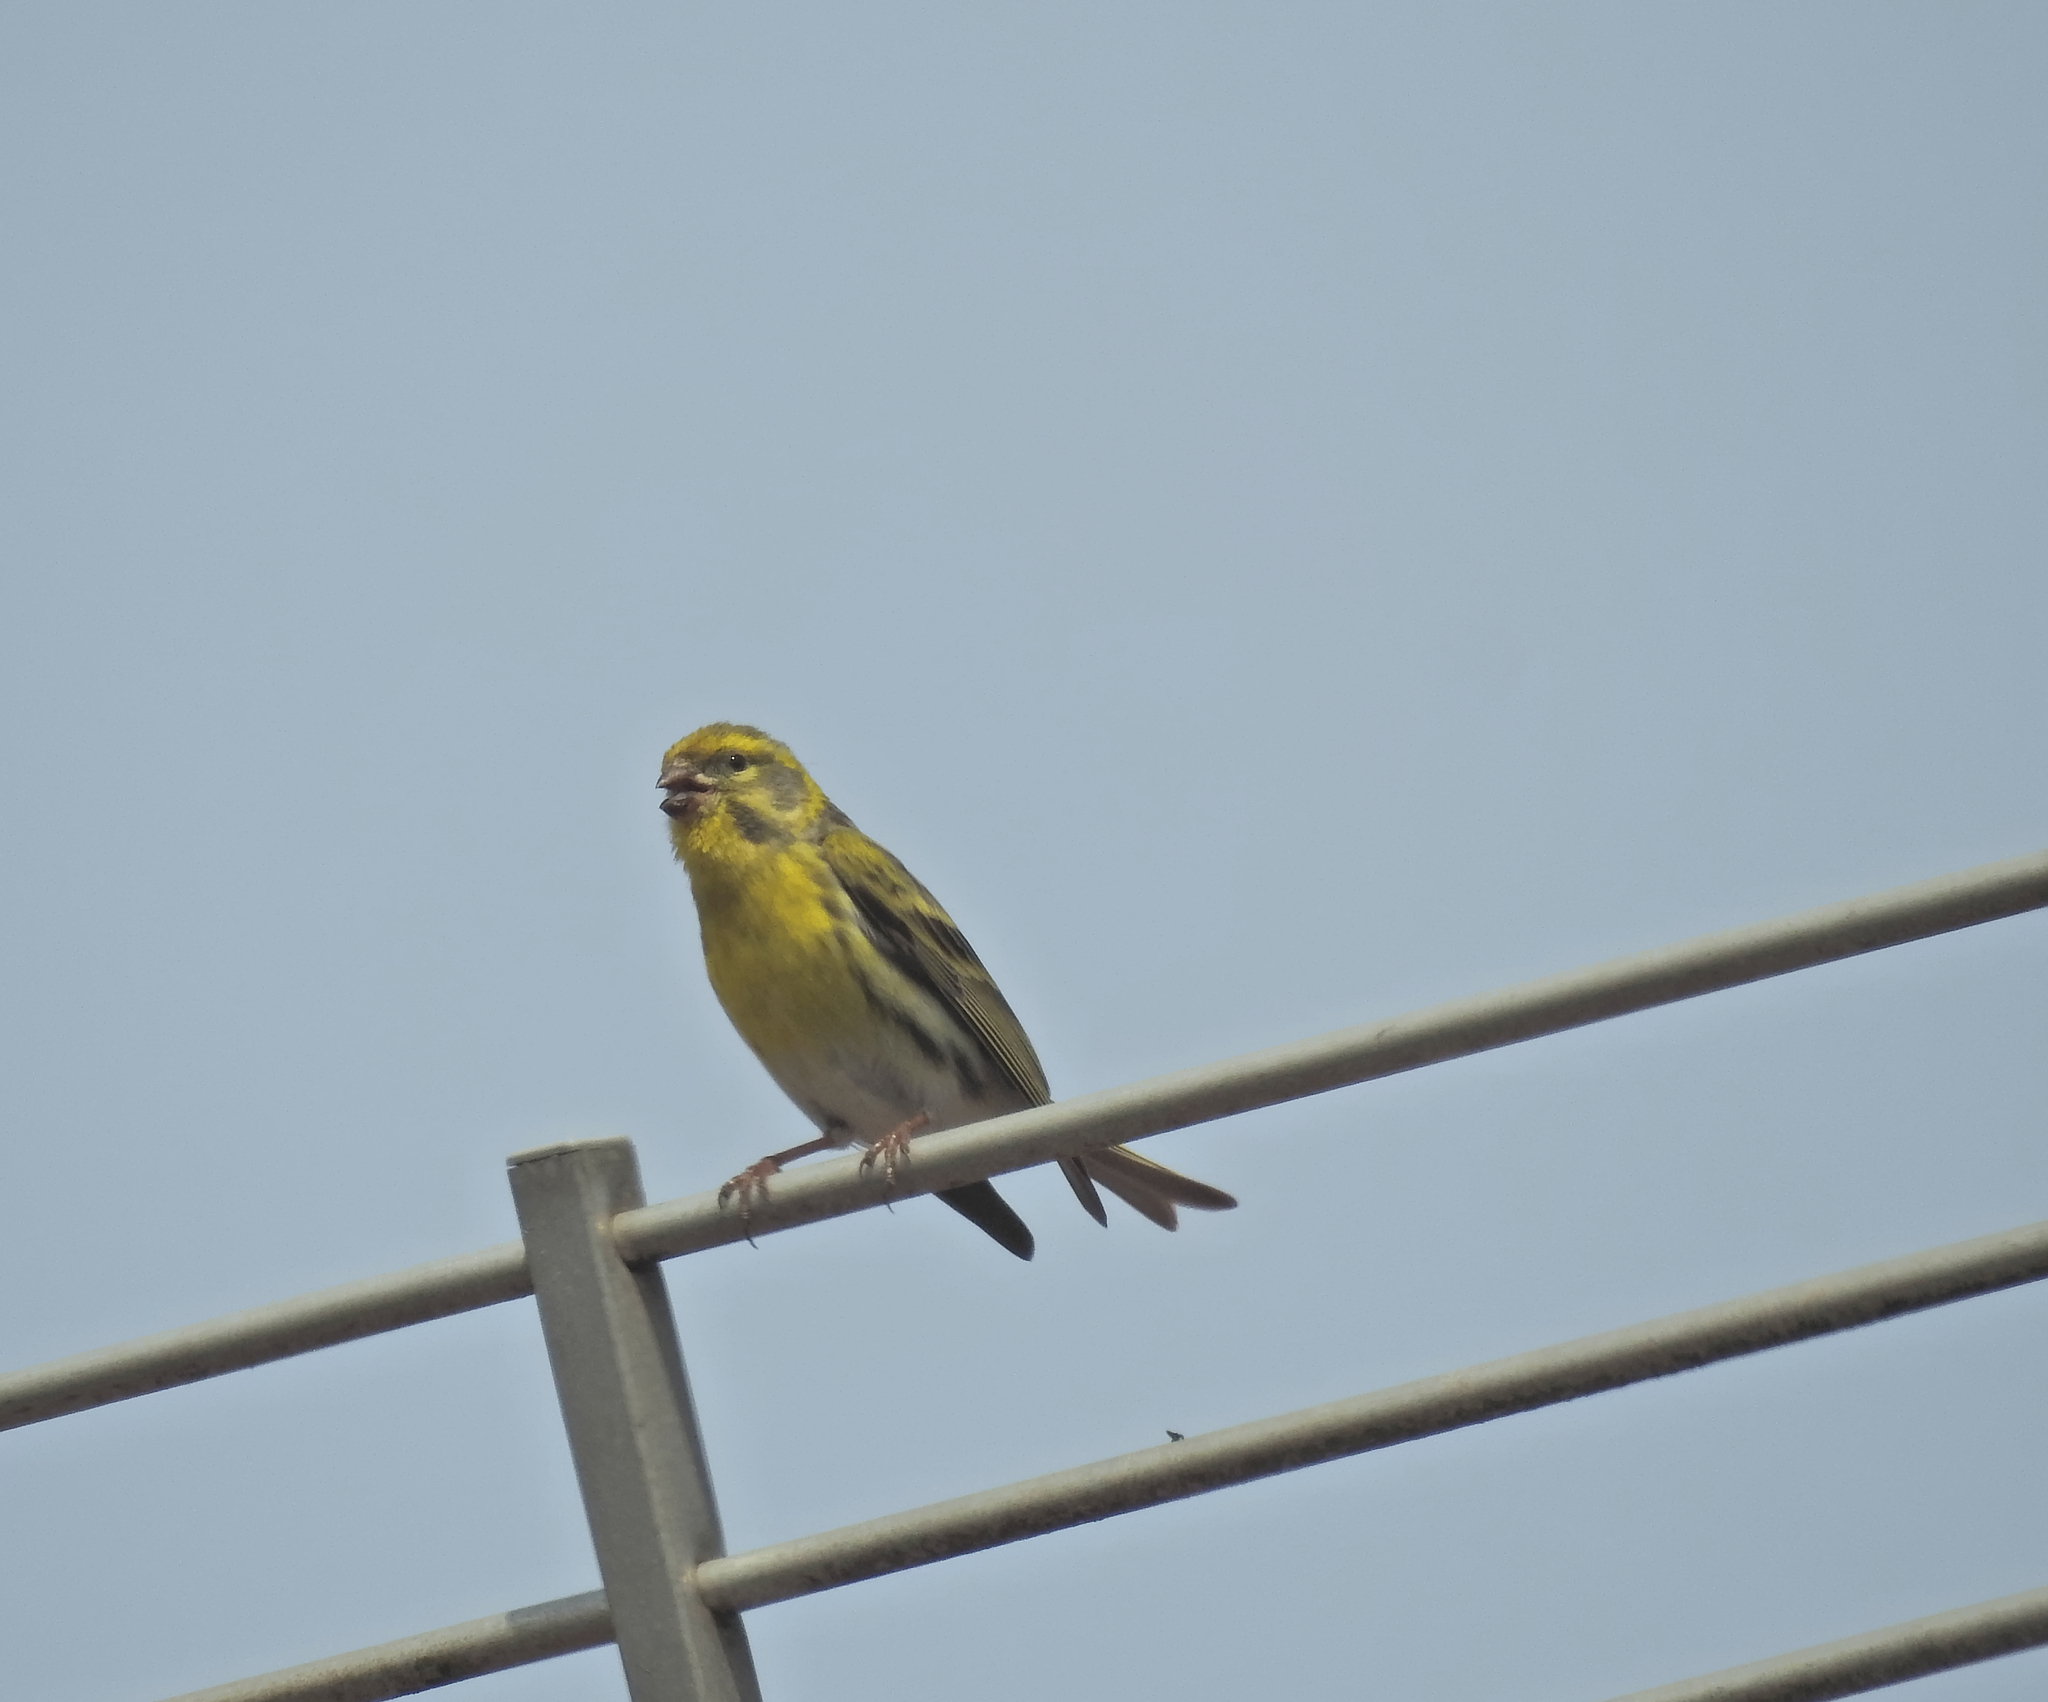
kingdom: Animalia
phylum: Chordata
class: Aves
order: Passeriformes
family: Fringillidae
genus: Serinus
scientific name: Serinus serinus
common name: European serin
